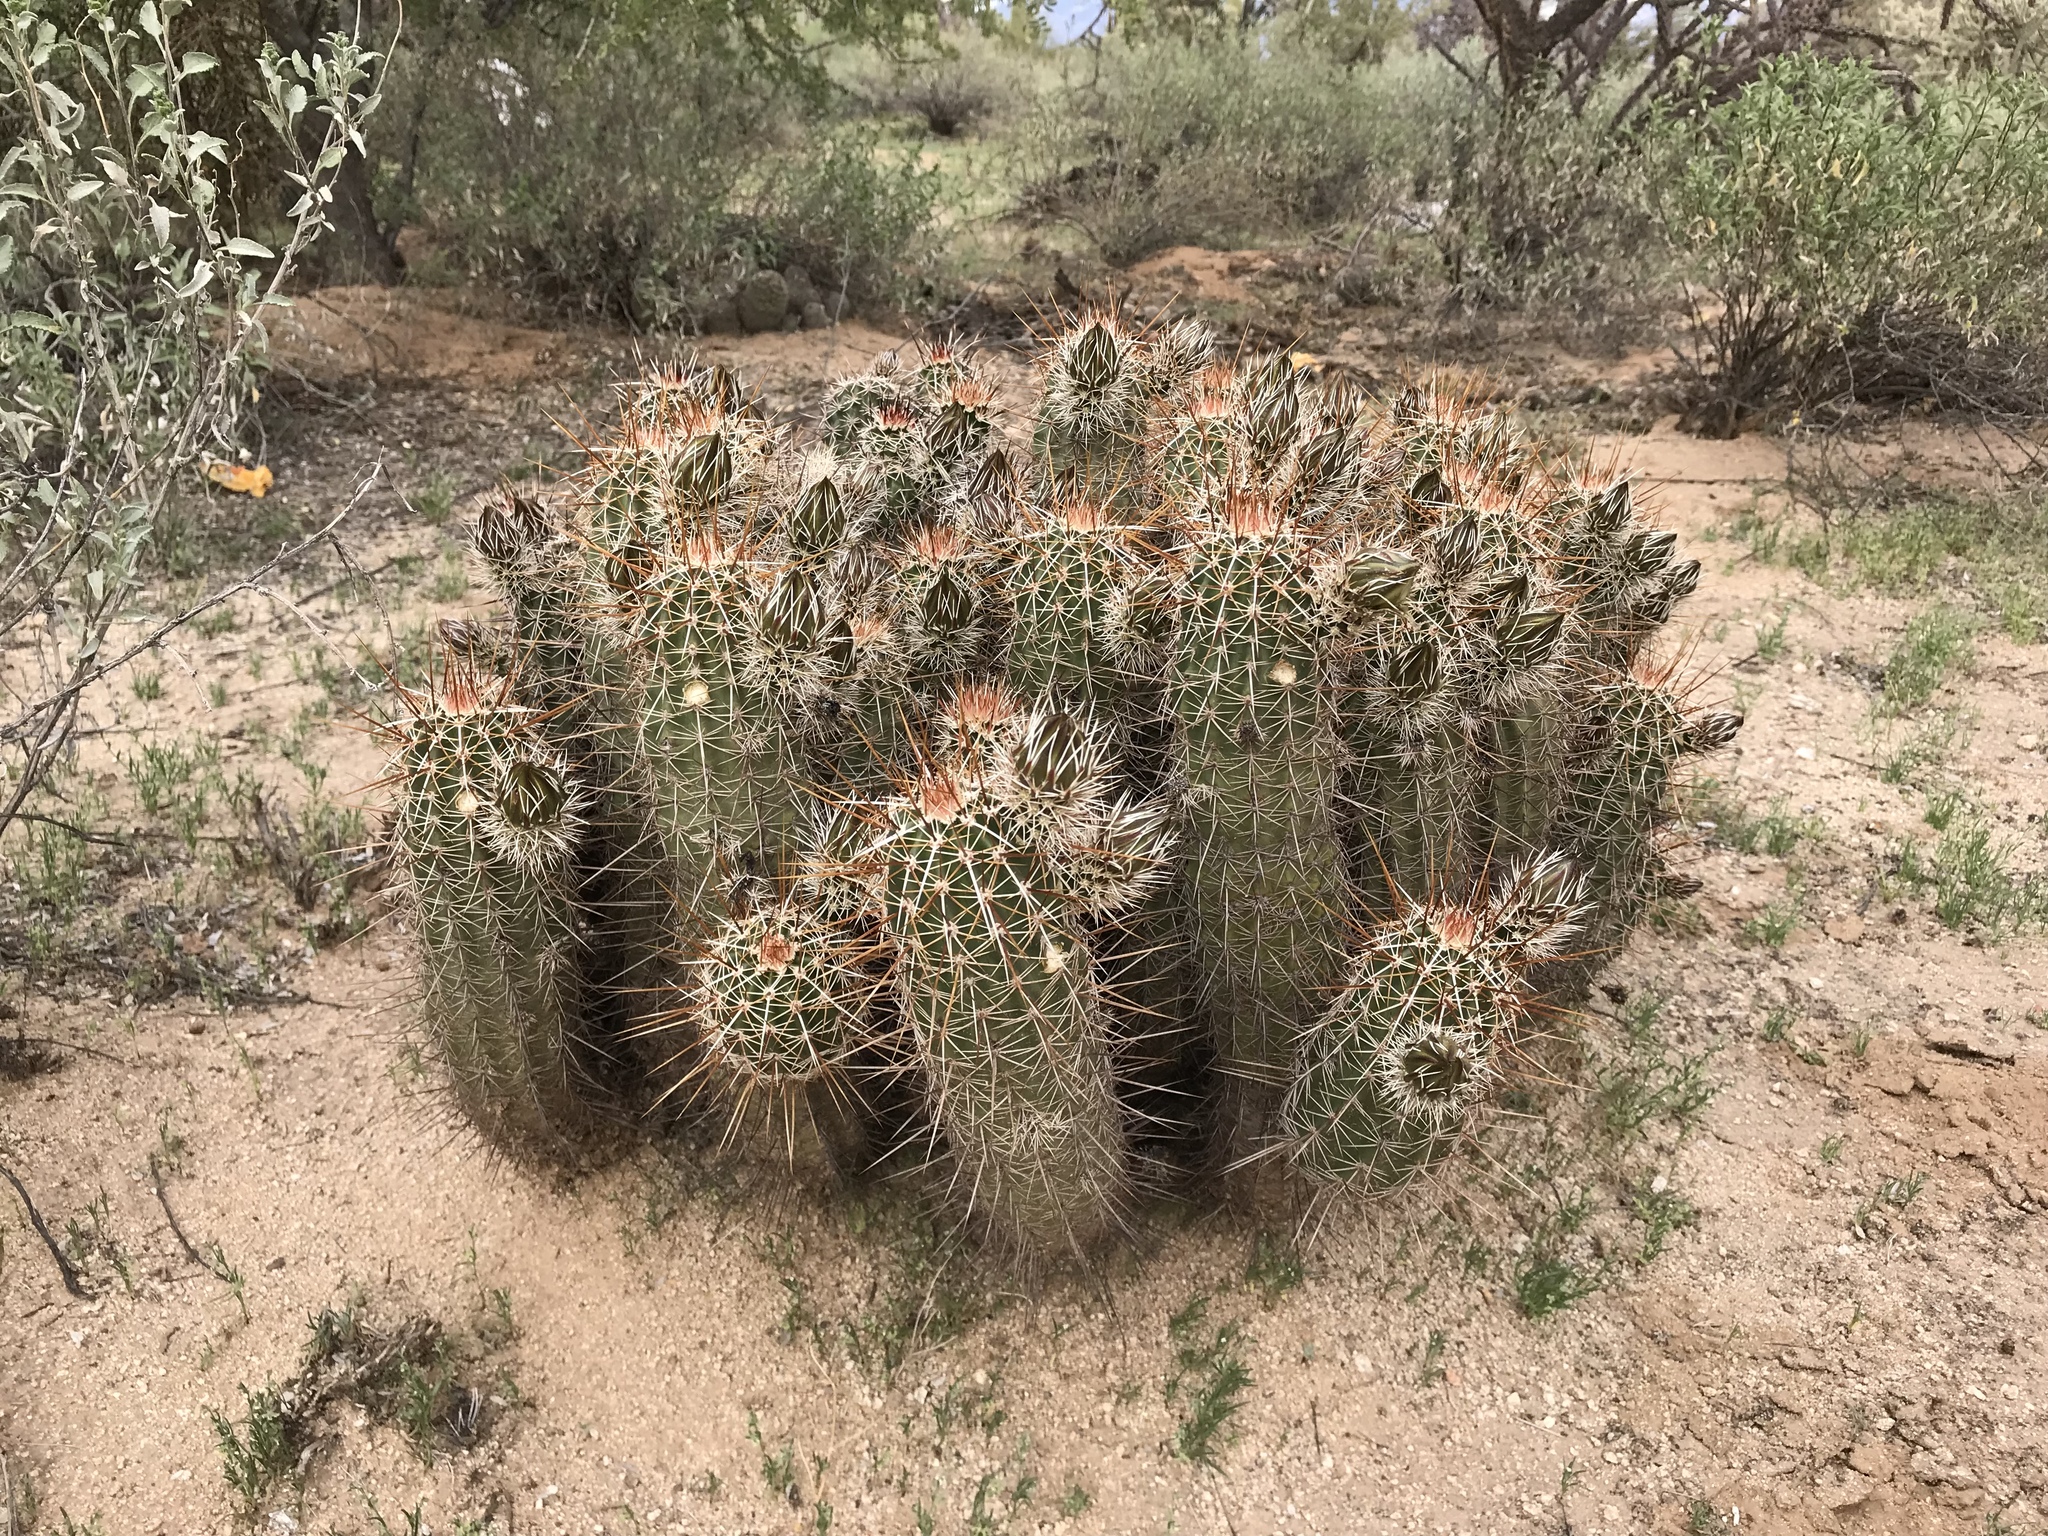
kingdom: Plantae
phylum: Tracheophyta
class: Magnoliopsida
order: Caryophyllales
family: Cactaceae
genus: Echinocereus
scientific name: Echinocereus fasciculatus
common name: Bundle hedgehog
